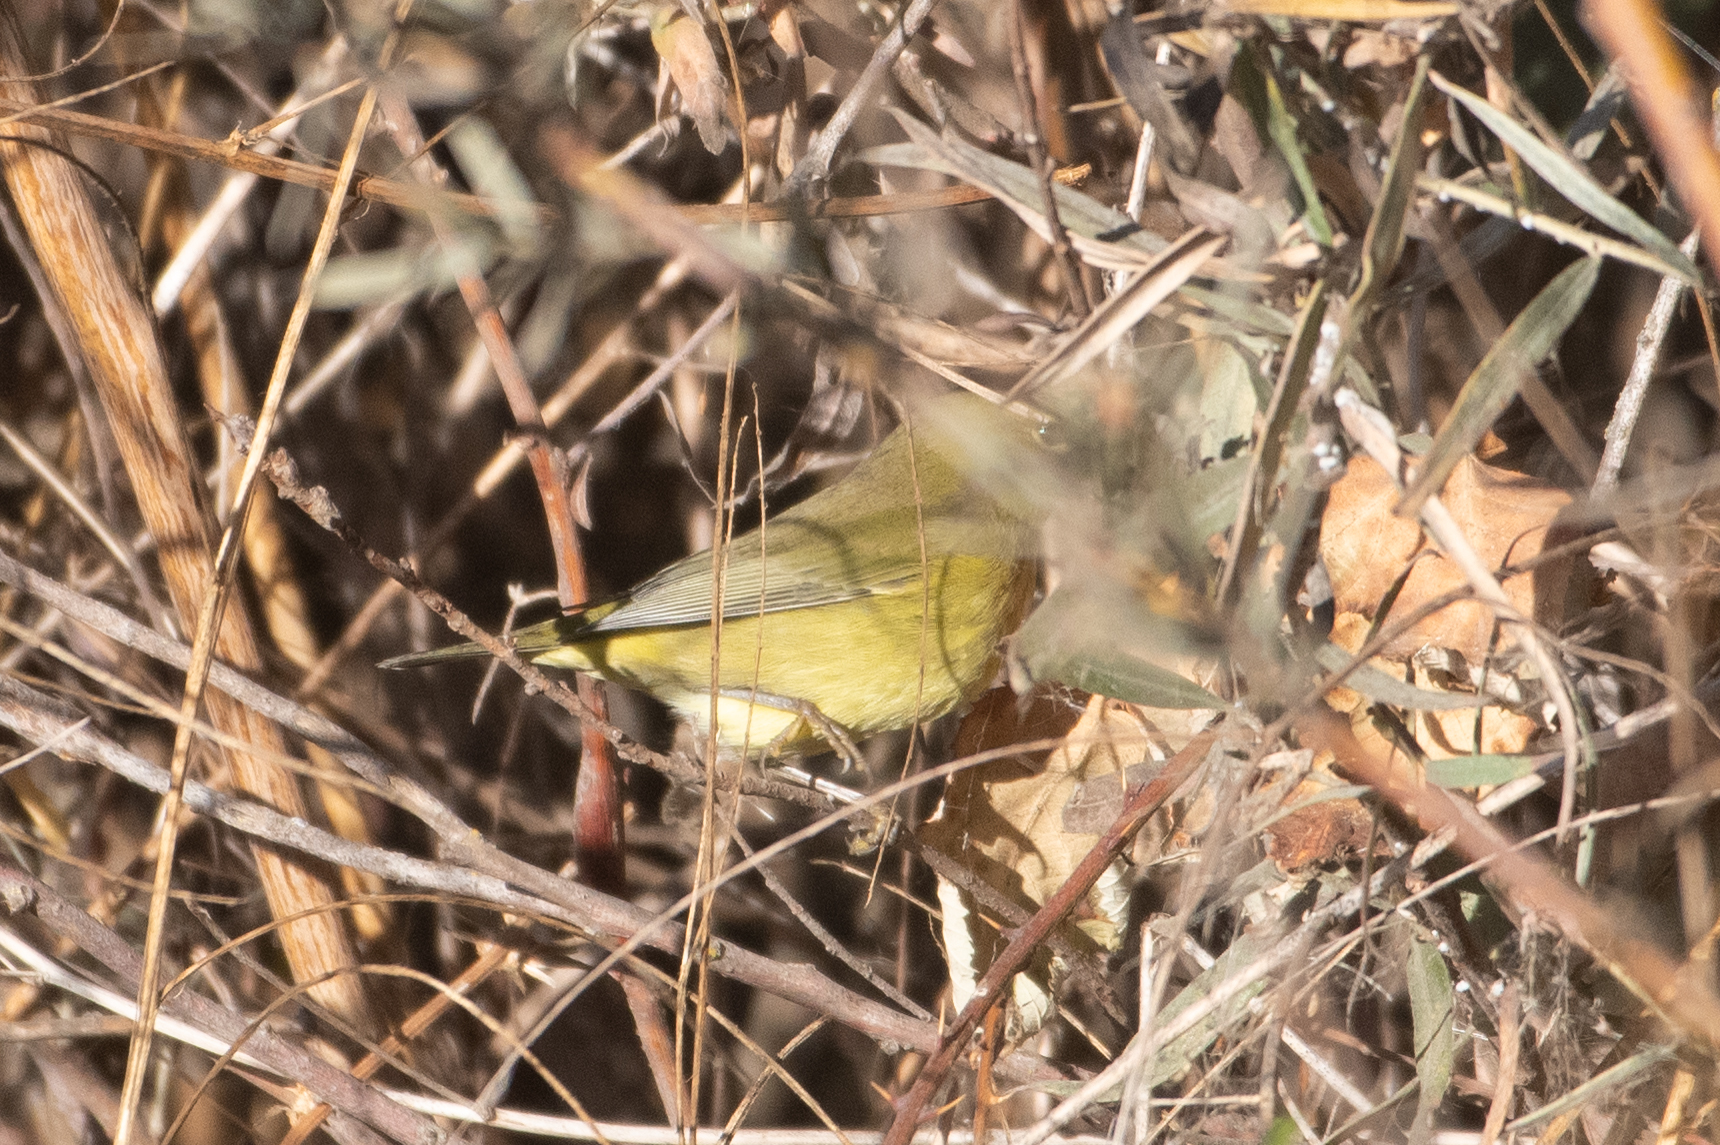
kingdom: Animalia
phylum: Chordata
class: Aves
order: Passeriformes
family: Parulidae
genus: Leiothlypis
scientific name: Leiothlypis celata
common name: Orange-crowned warbler
